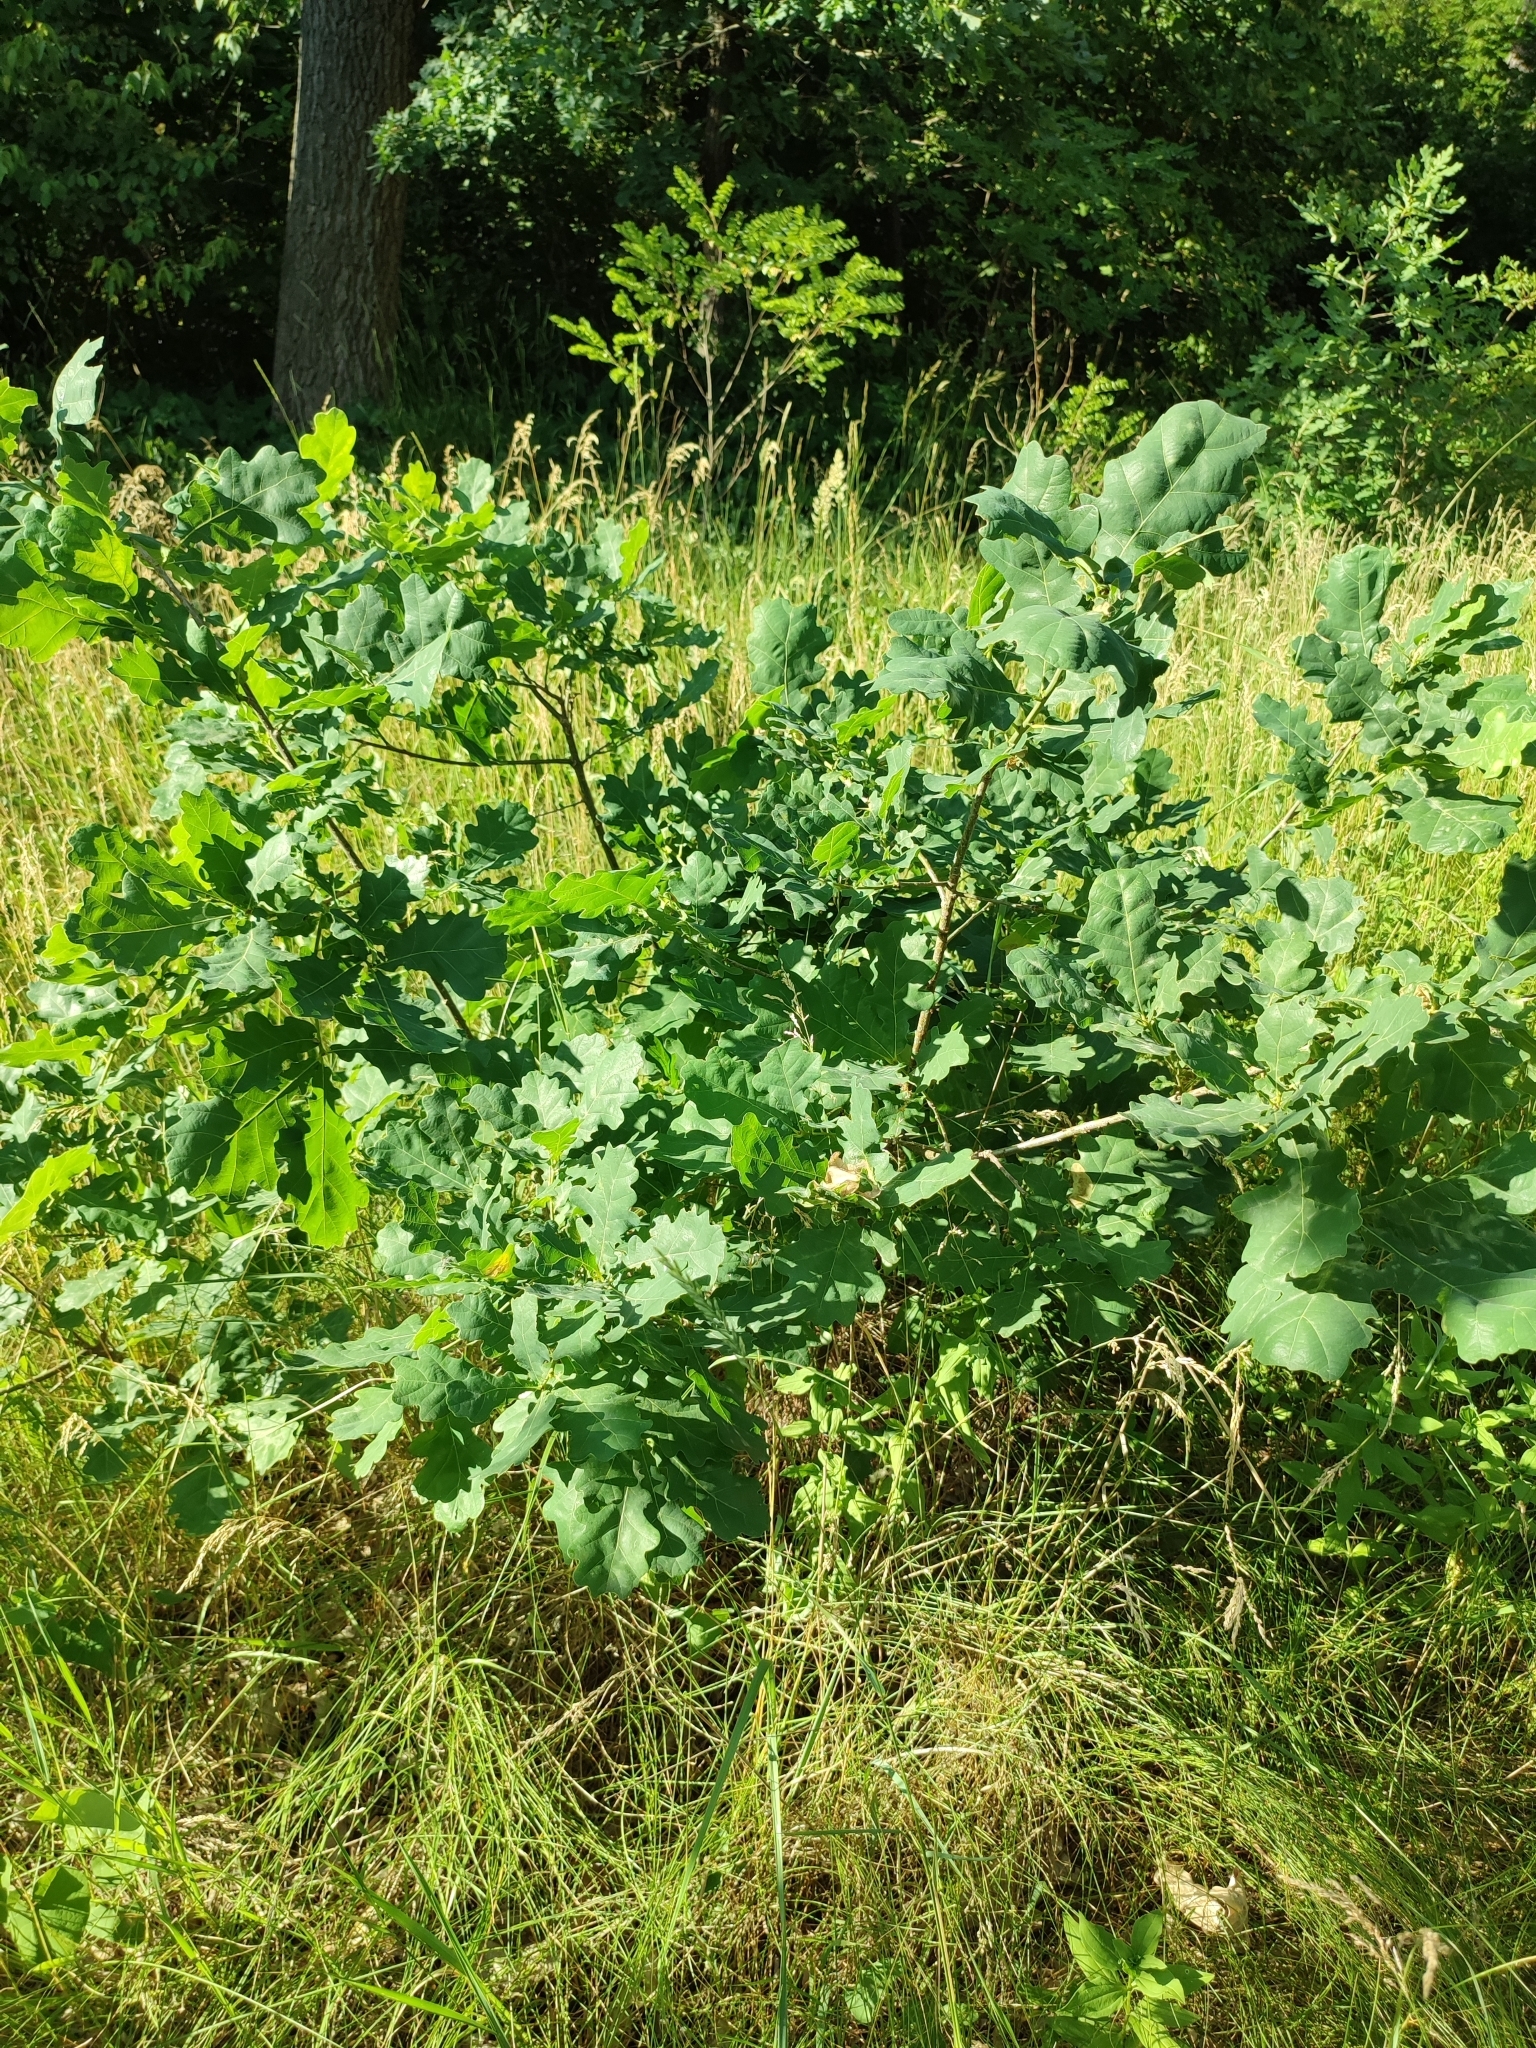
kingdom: Plantae
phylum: Tracheophyta
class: Magnoliopsida
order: Fagales
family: Fagaceae
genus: Quercus
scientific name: Quercus robur
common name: Pedunculate oak
